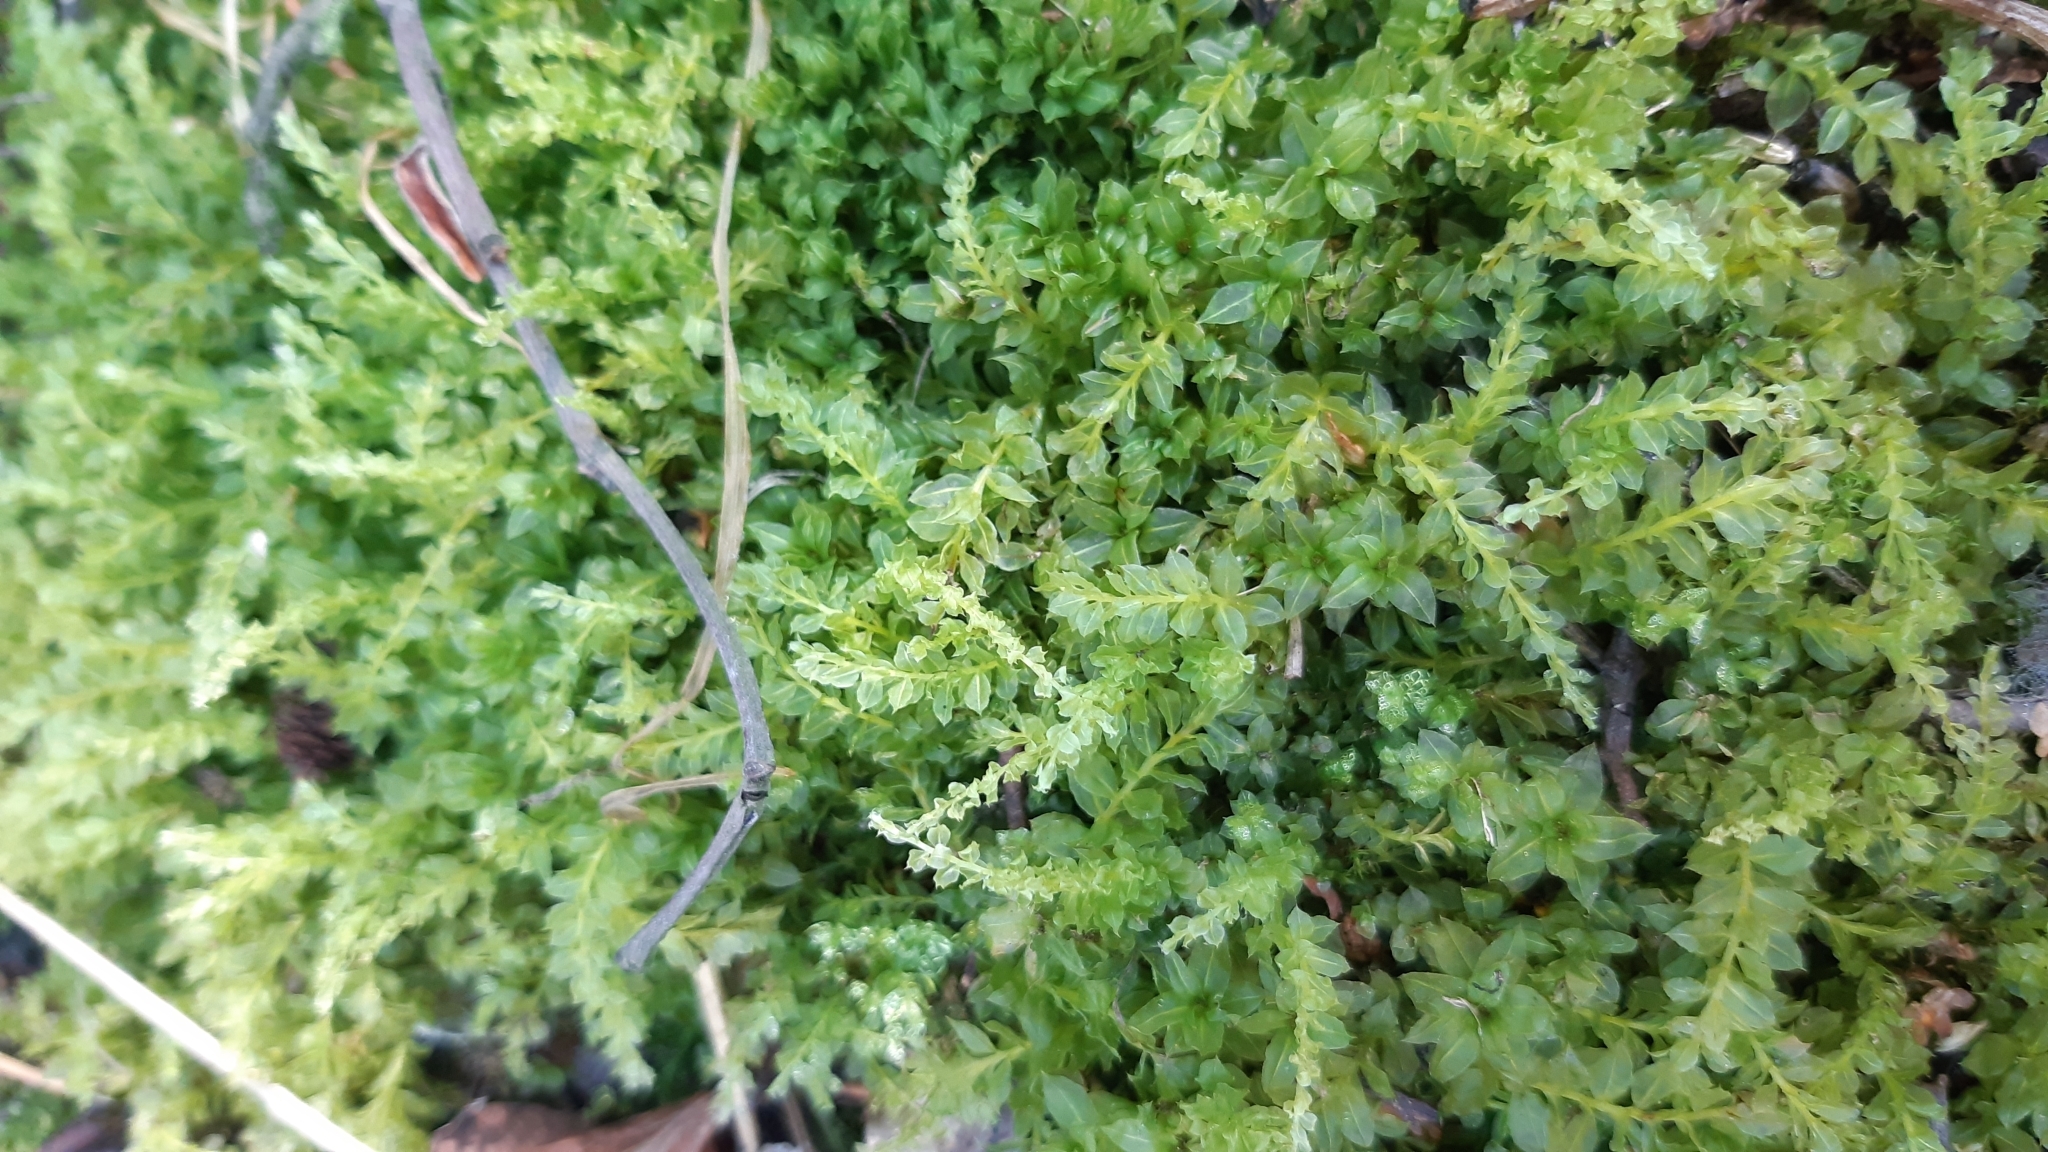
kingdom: Plantae
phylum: Bryophyta
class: Bryopsida
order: Bryales
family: Mniaceae
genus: Plagiomnium
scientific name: Plagiomnium cuspidatum
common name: Woodsy leafy moss
